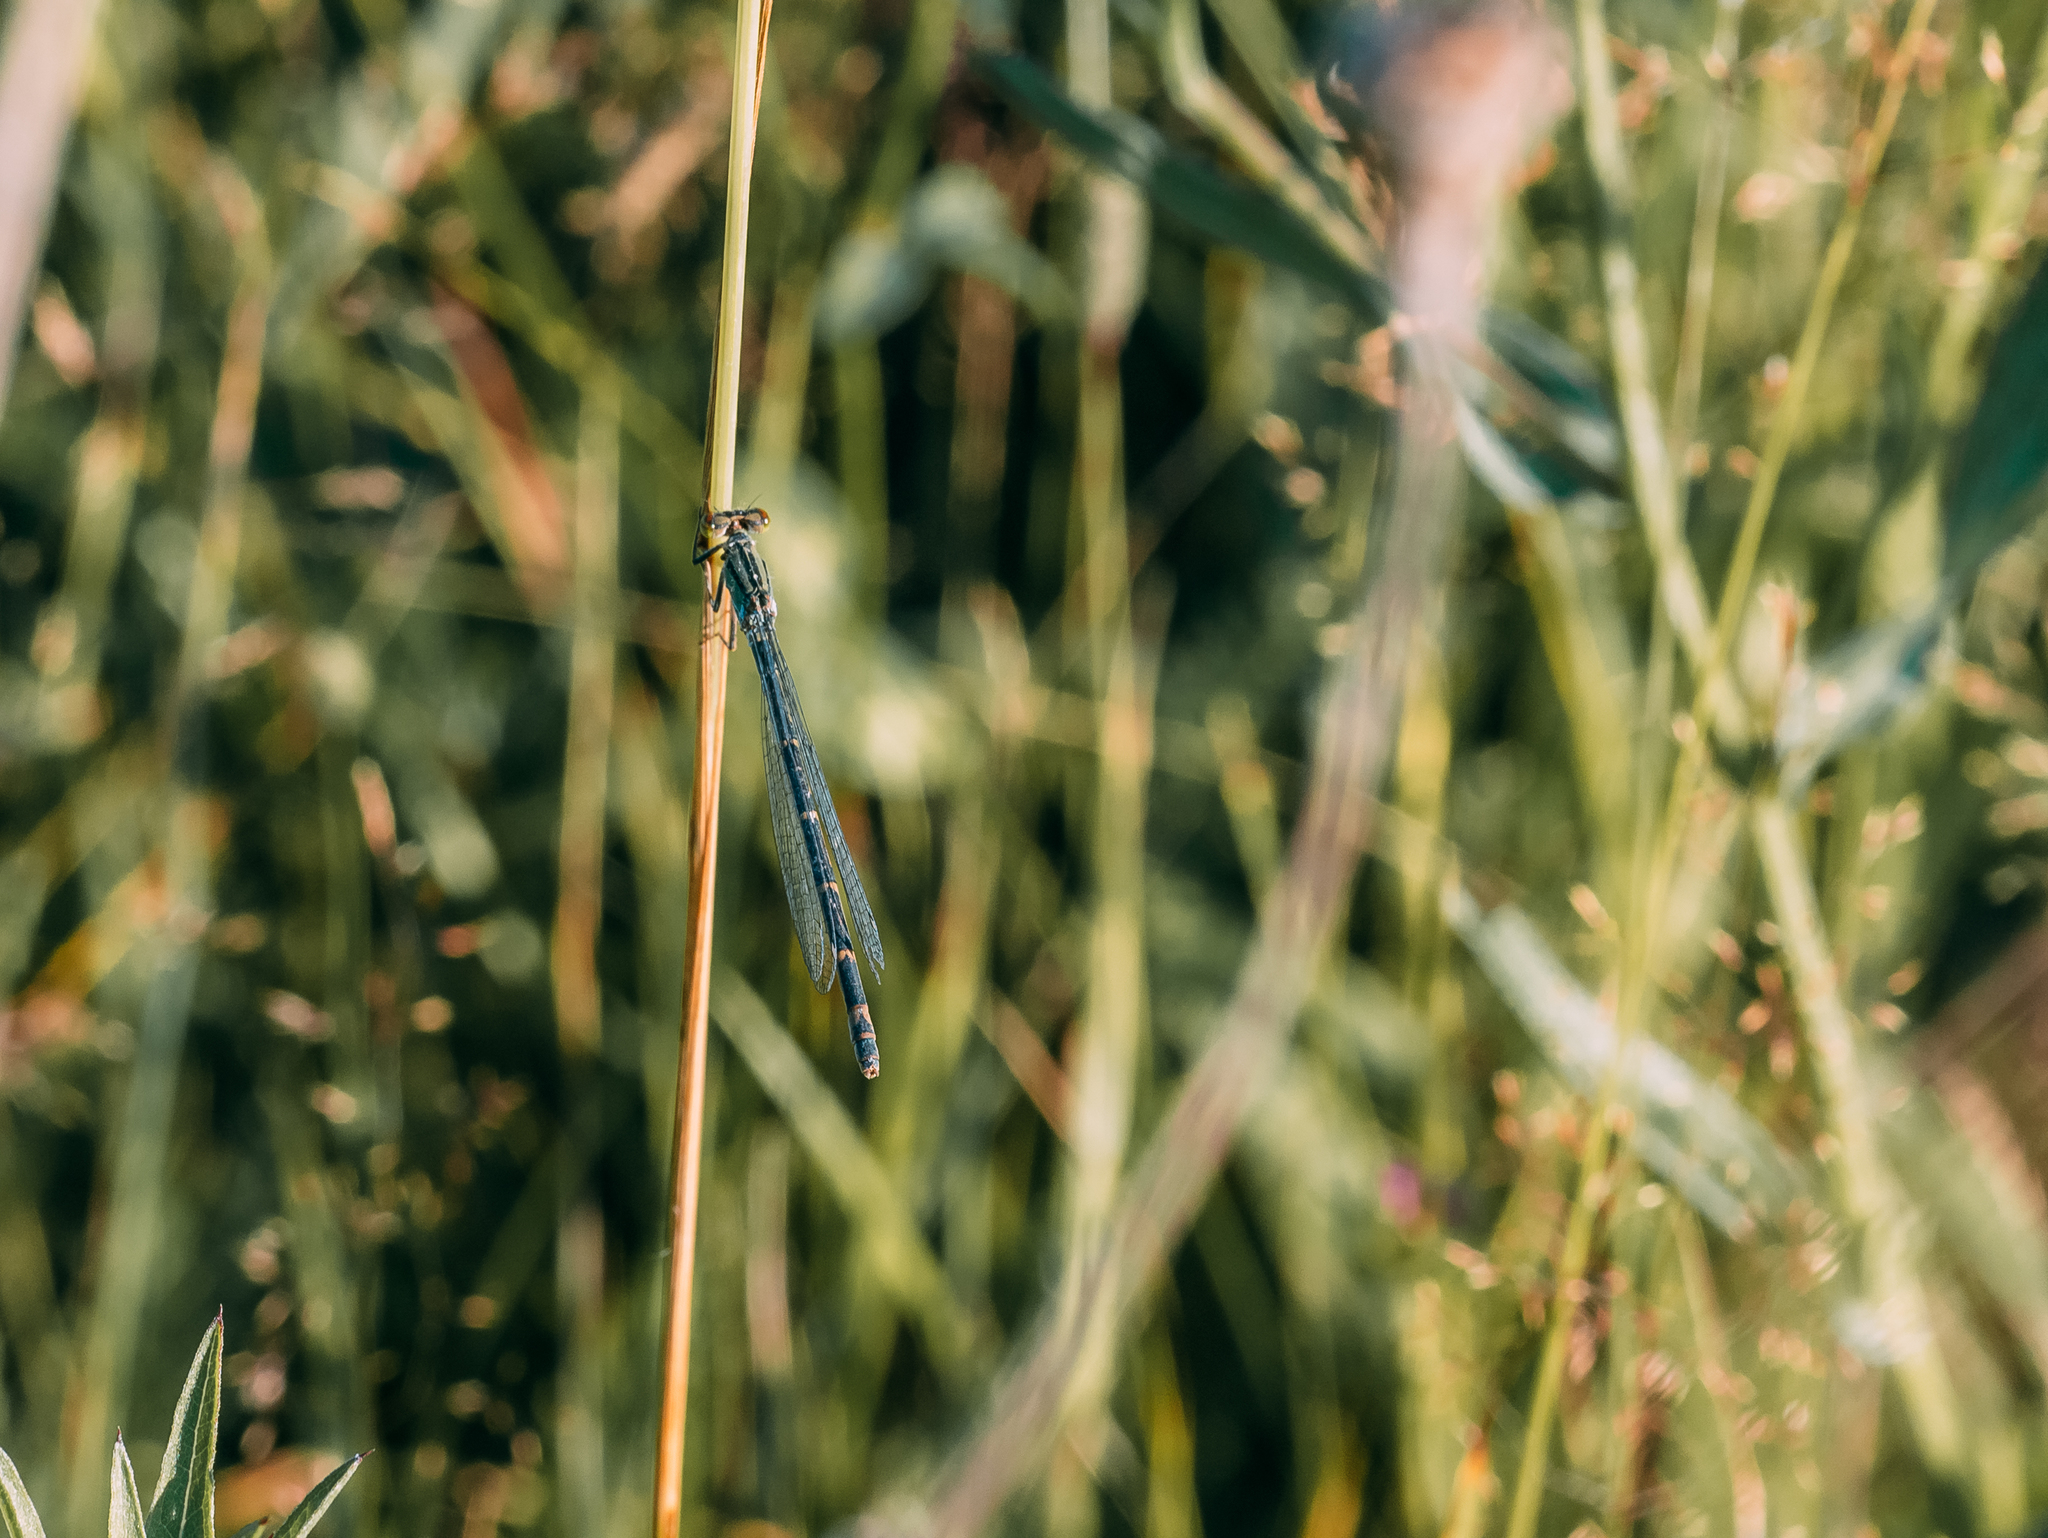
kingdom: Animalia
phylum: Arthropoda
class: Insecta
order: Odonata
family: Coenagrionidae
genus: Enallagma
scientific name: Enallagma cyathigerum
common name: Common blue damselfly
